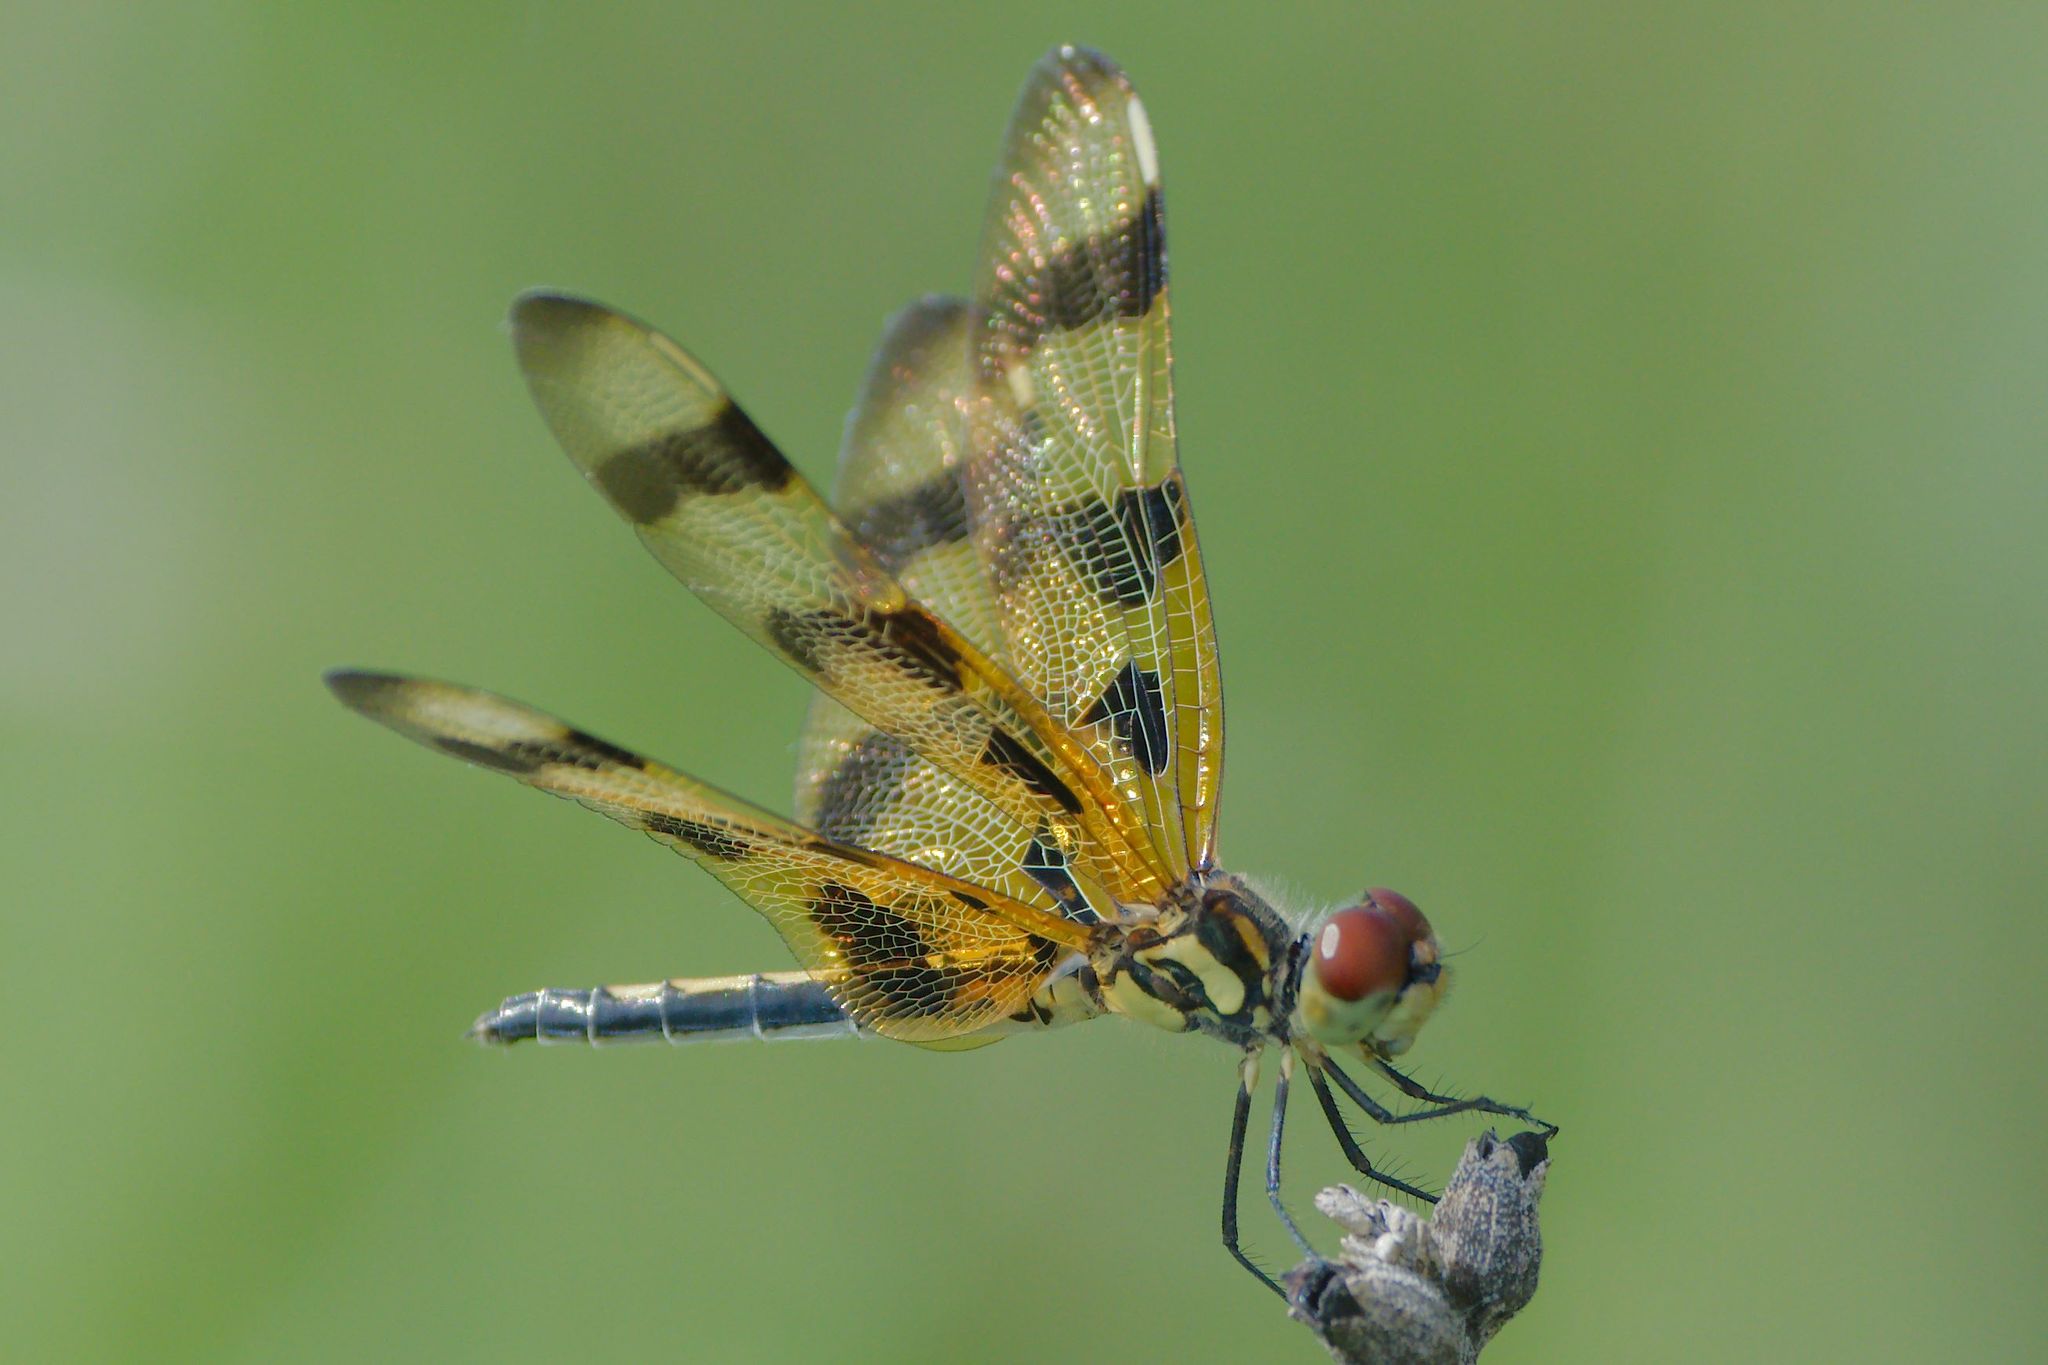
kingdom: Animalia
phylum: Arthropoda
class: Insecta
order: Odonata
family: Libellulidae
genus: Celithemis
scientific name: Celithemis eponina
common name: Halloween pennant
